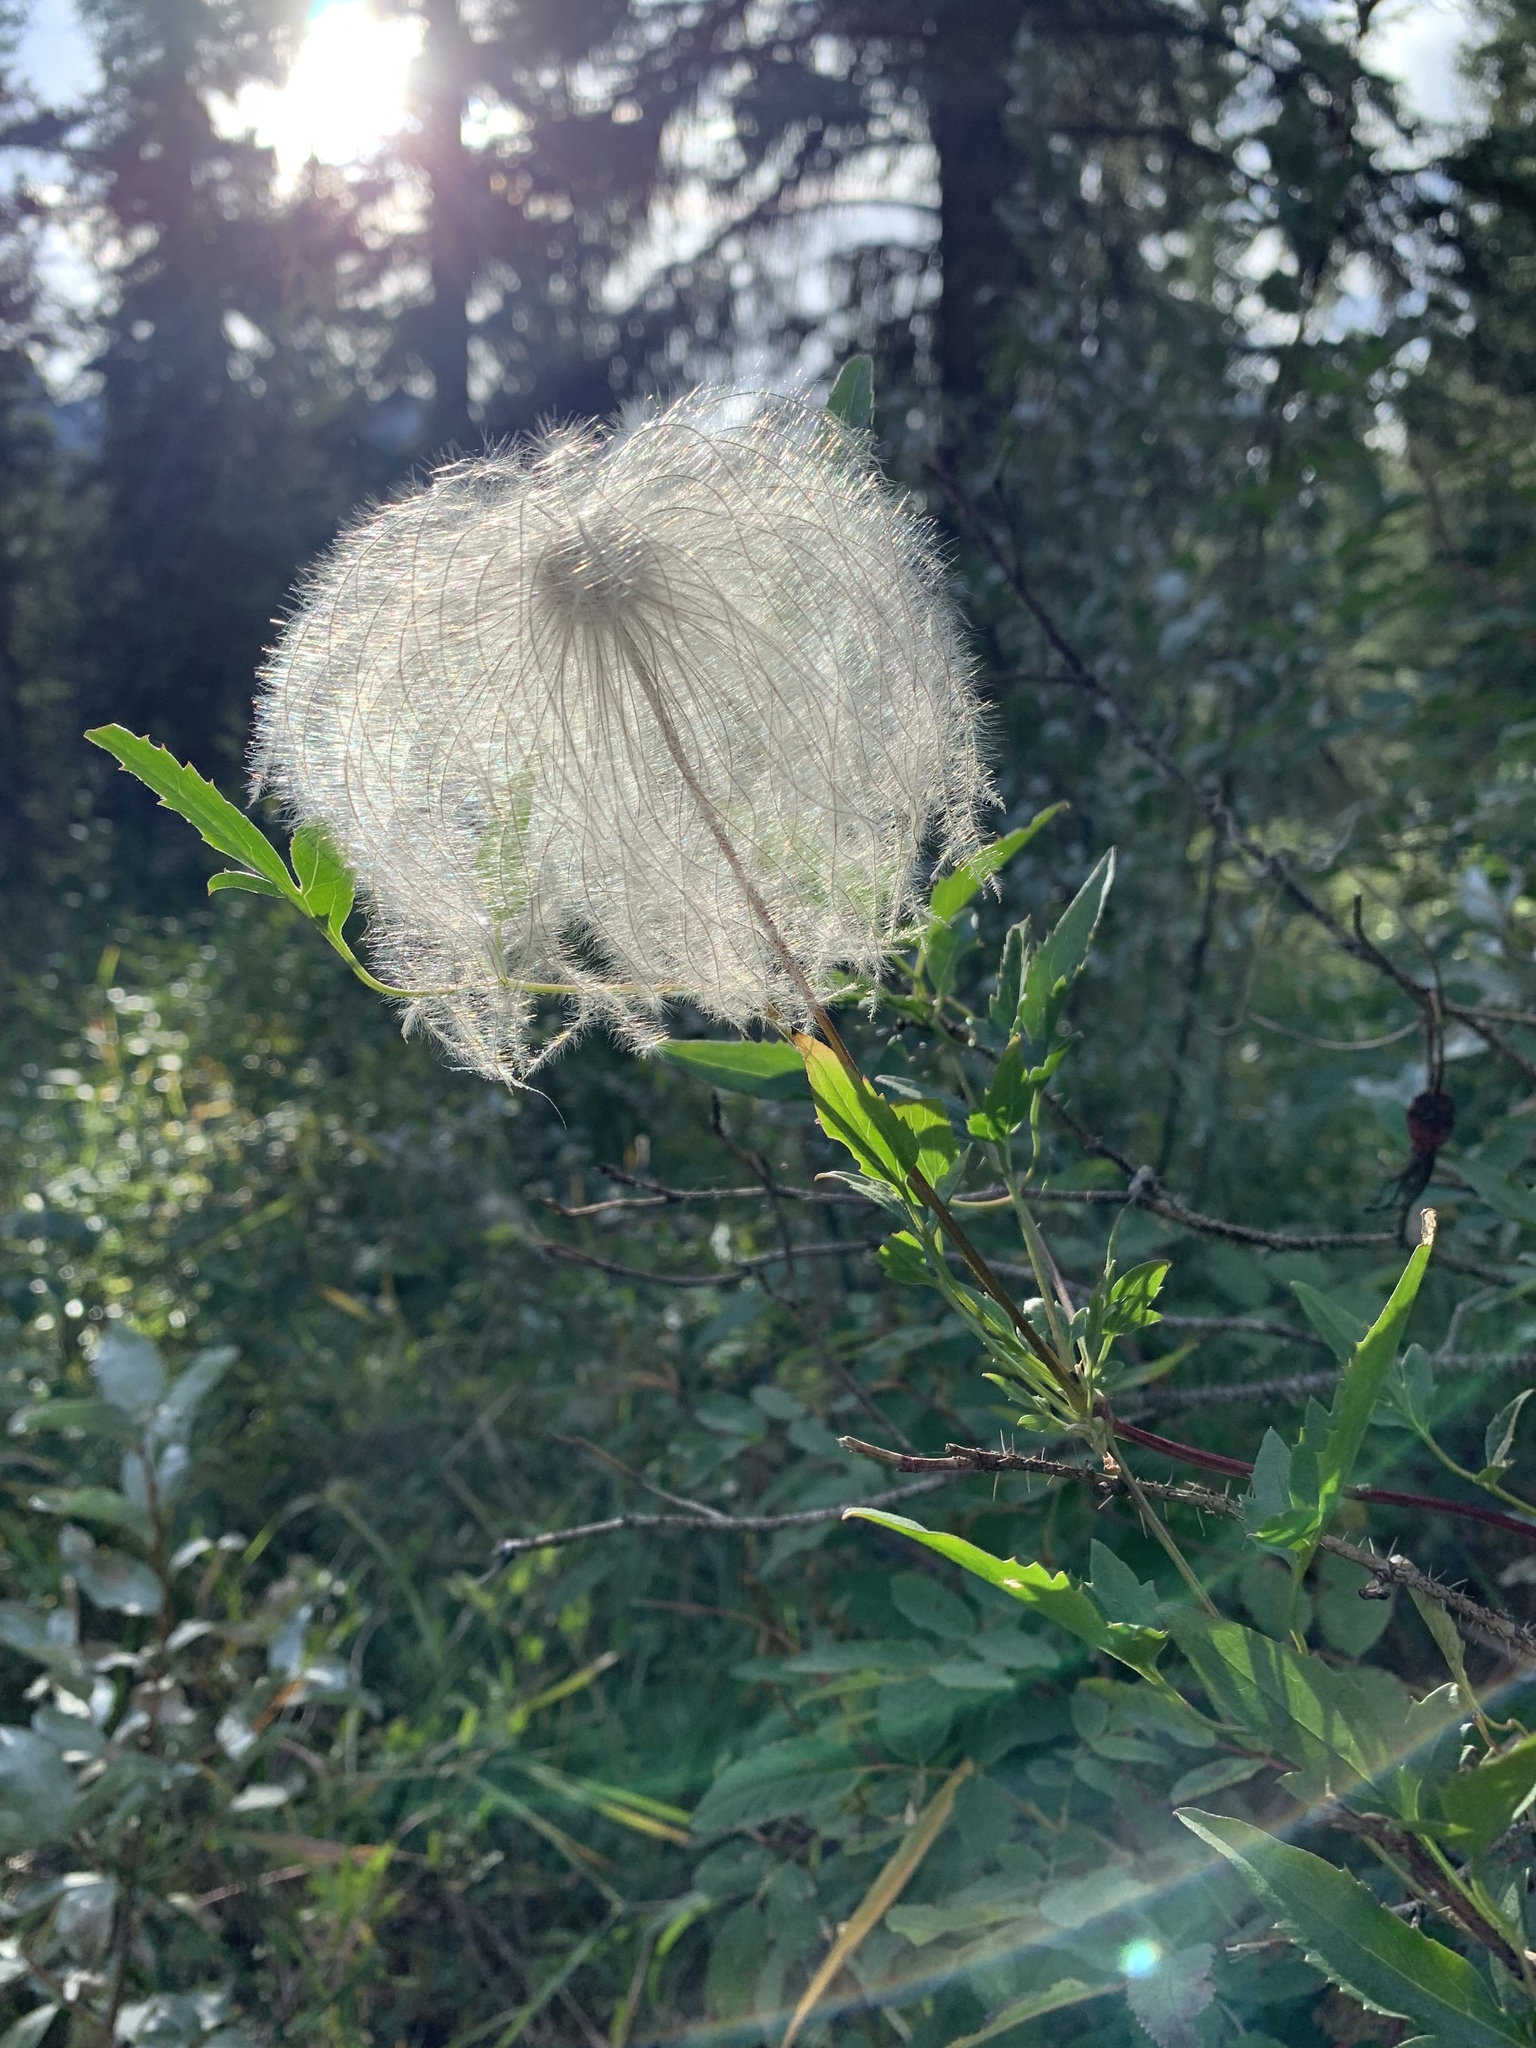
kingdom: Plantae
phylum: Tracheophyta
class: Magnoliopsida
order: Ranunculales
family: Ranunculaceae
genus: Clematis
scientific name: Clematis tangutica
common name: Orange-peel clematis
